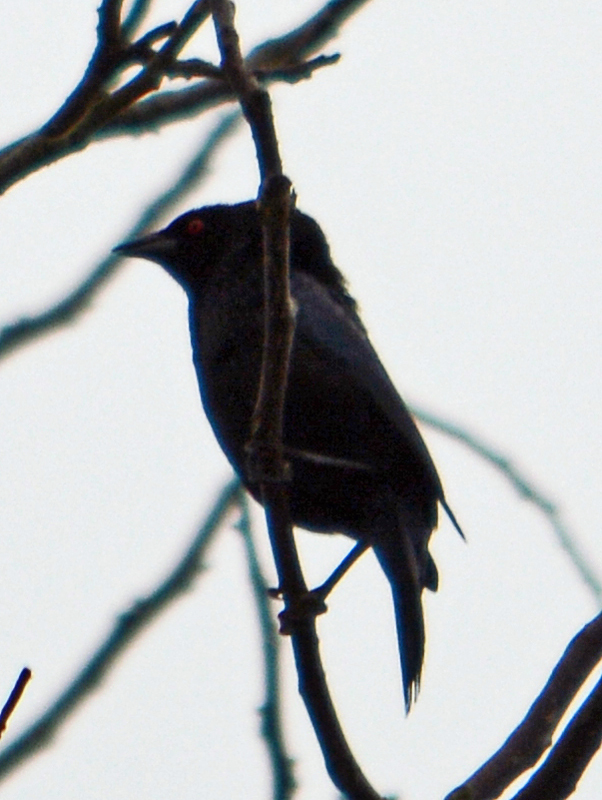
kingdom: Animalia
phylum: Chordata
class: Aves
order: Passeriformes
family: Icteridae
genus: Molothrus
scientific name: Molothrus aeneus
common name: Bronzed cowbird
